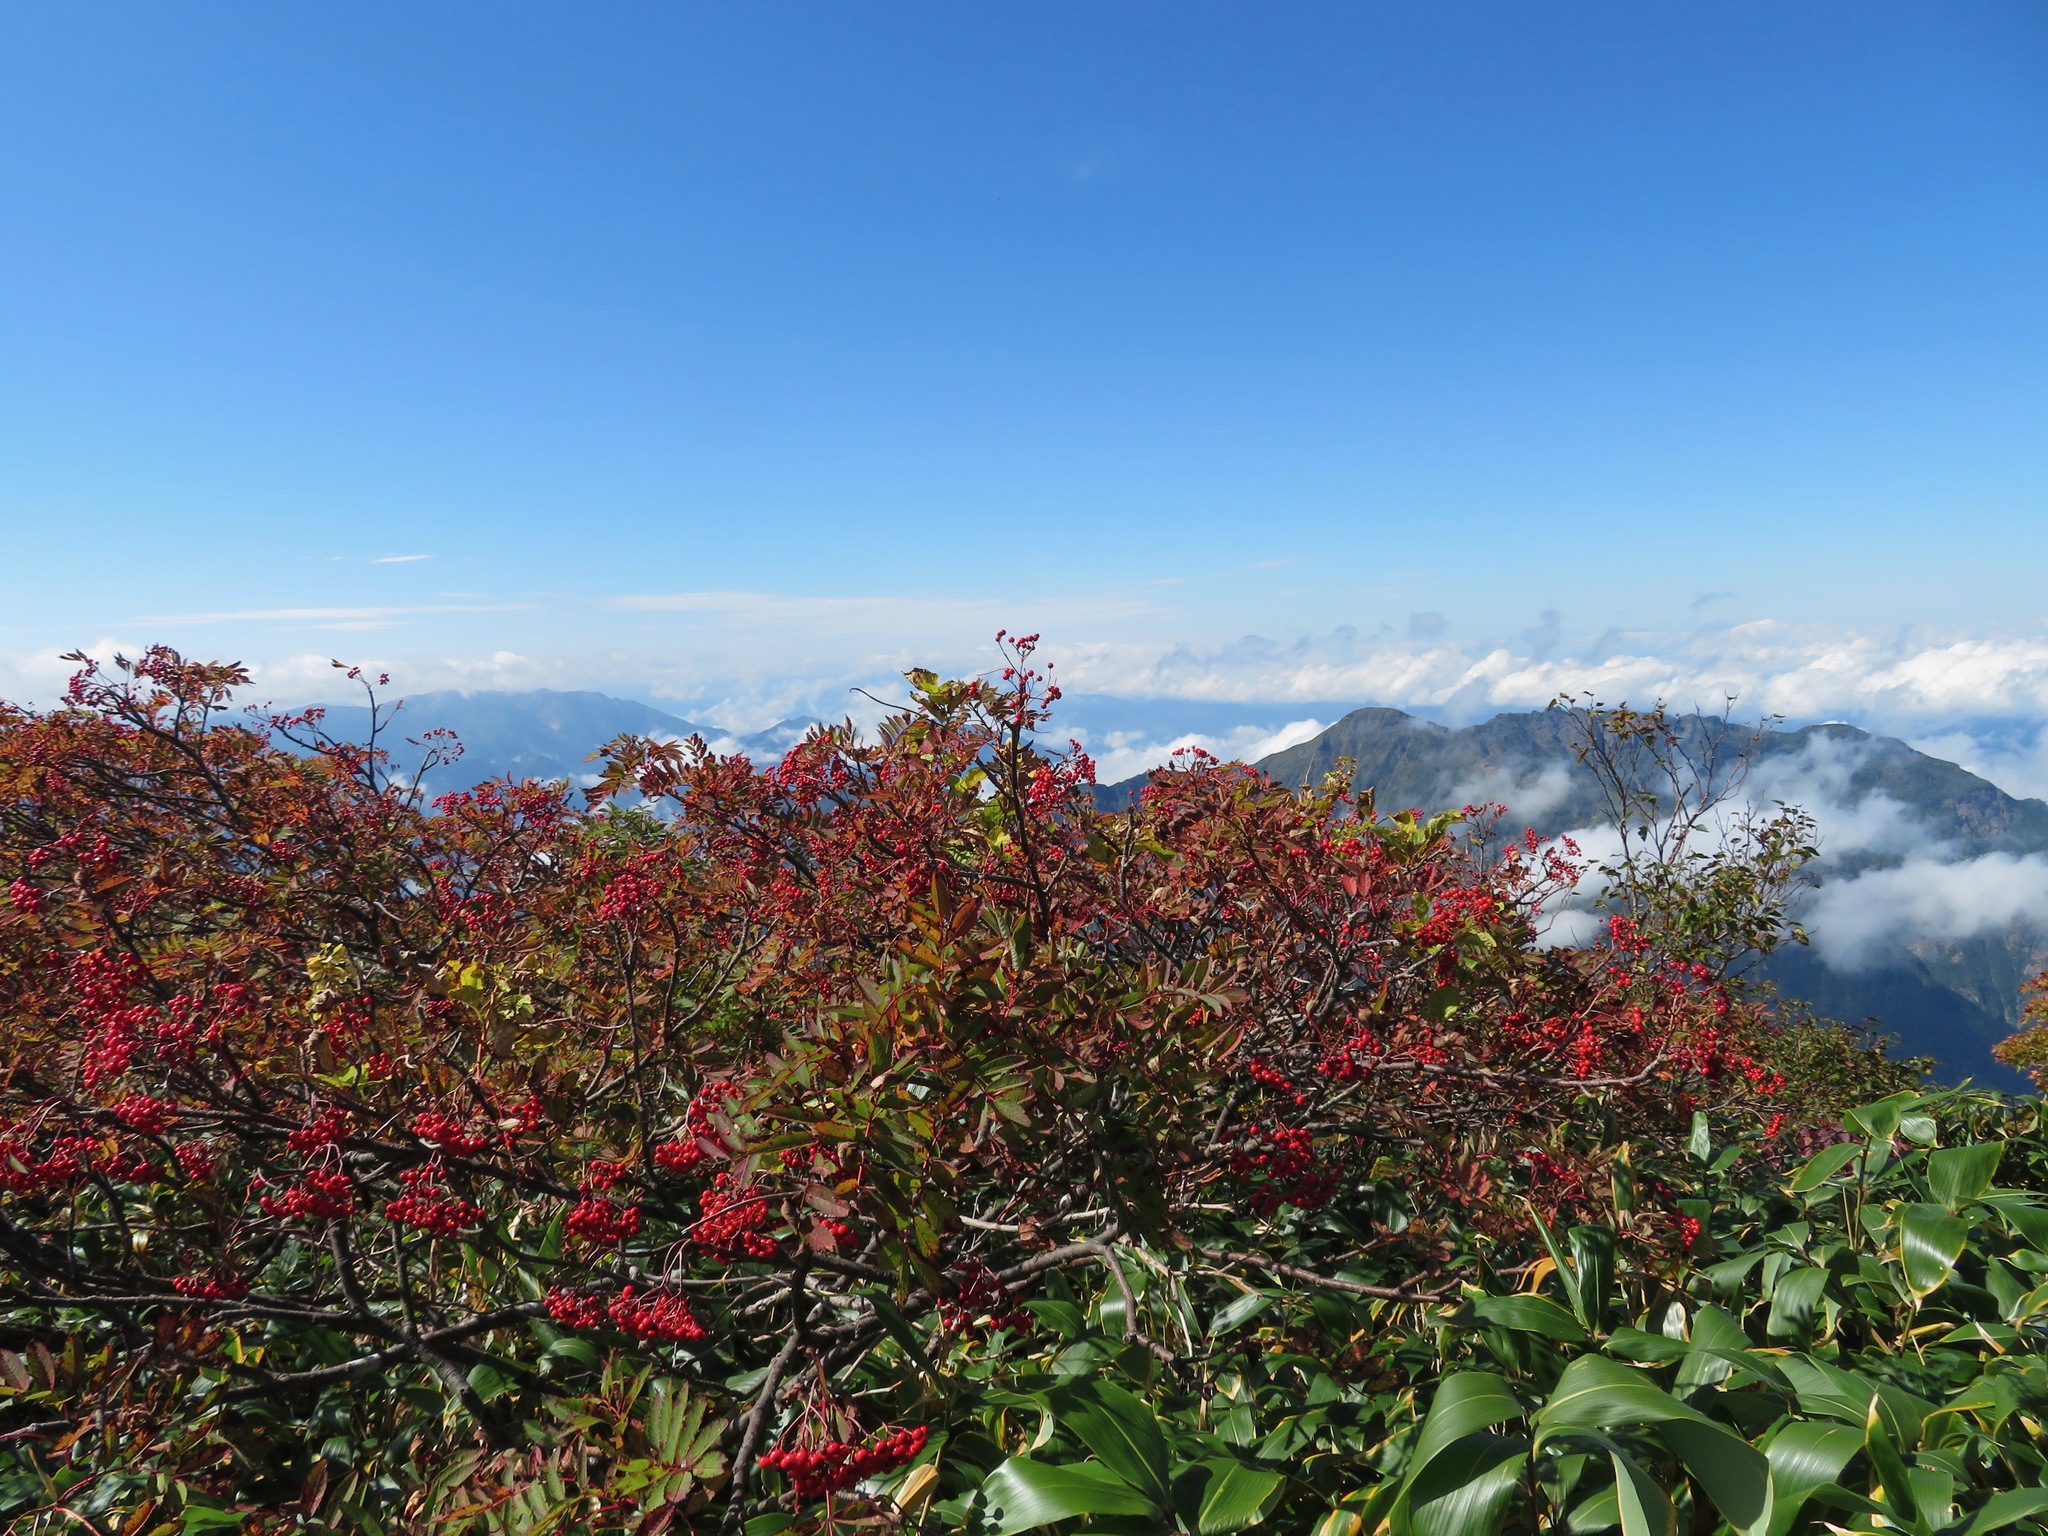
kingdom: Plantae
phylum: Tracheophyta
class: Magnoliopsida
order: Rosales
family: Rosaceae
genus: Sorbus
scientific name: Sorbus sambucifolia
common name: Siberian mountain-ash
